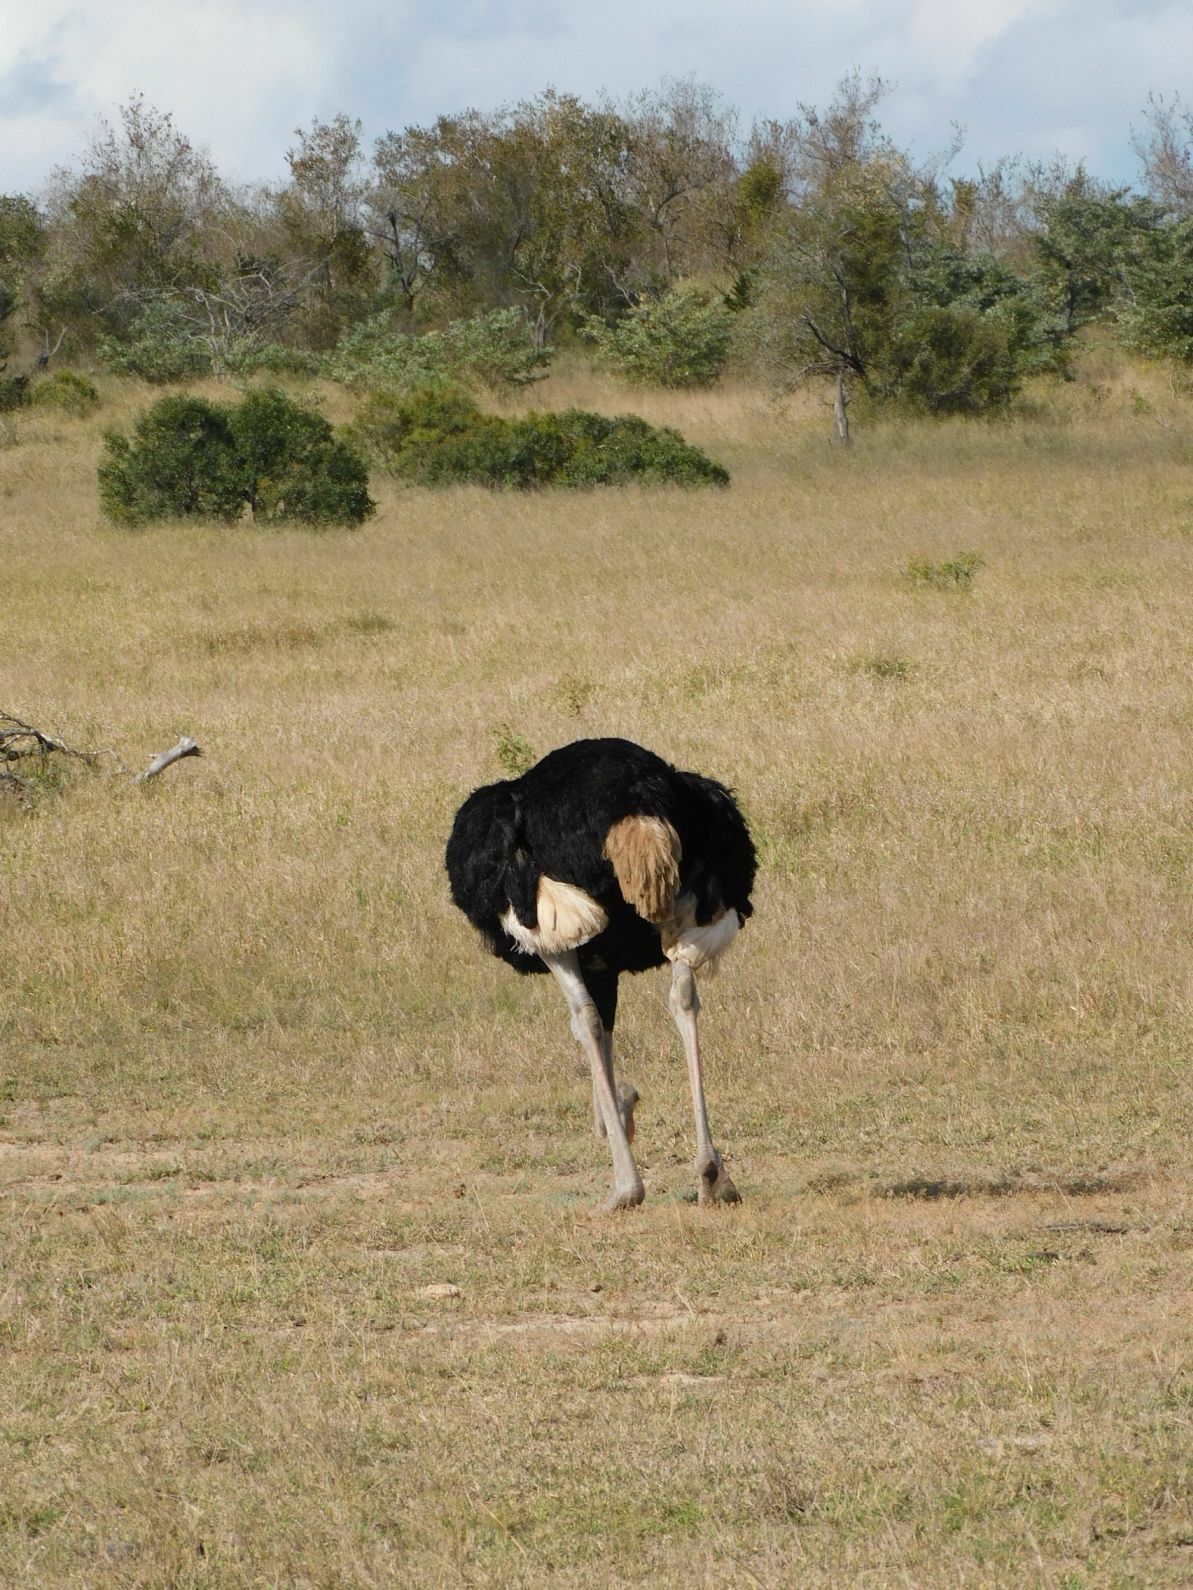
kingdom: Animalia
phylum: Chordata
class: Aves
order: Struthioniformes
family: Struthionidae
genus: Struthio
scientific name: Struthio camelus
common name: Common ostrich
